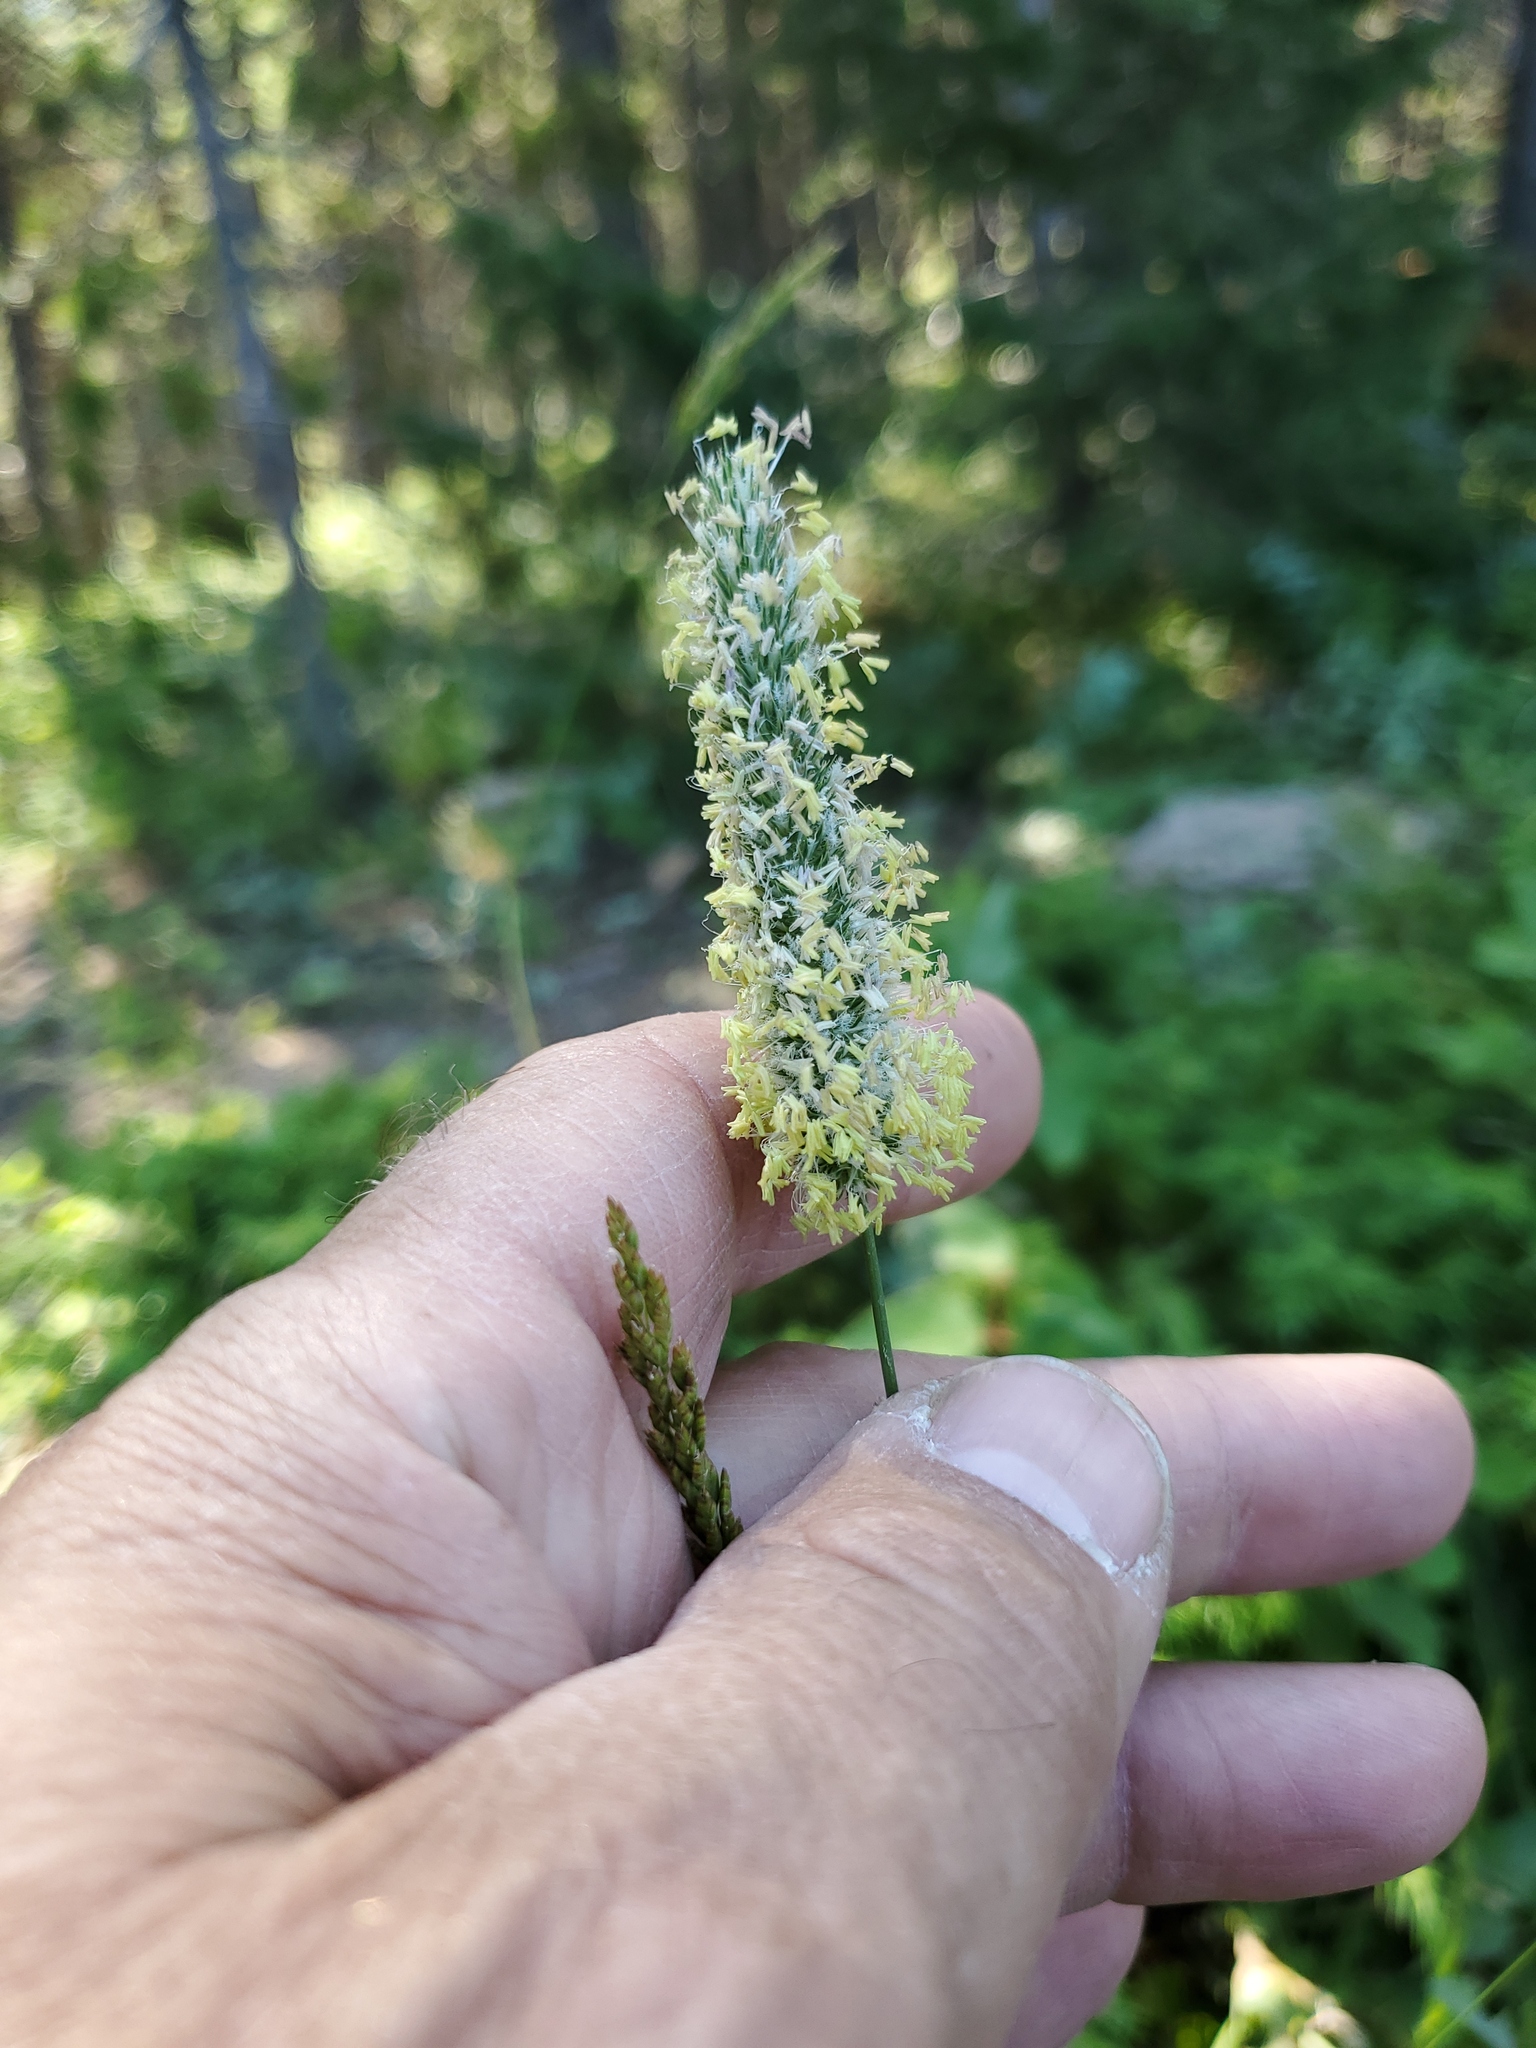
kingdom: Plantae
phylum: Tracheophyta
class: Liliopsida
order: Poales
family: Poaceae
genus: Phleum
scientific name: Phleum pratense
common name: Timothy grass
